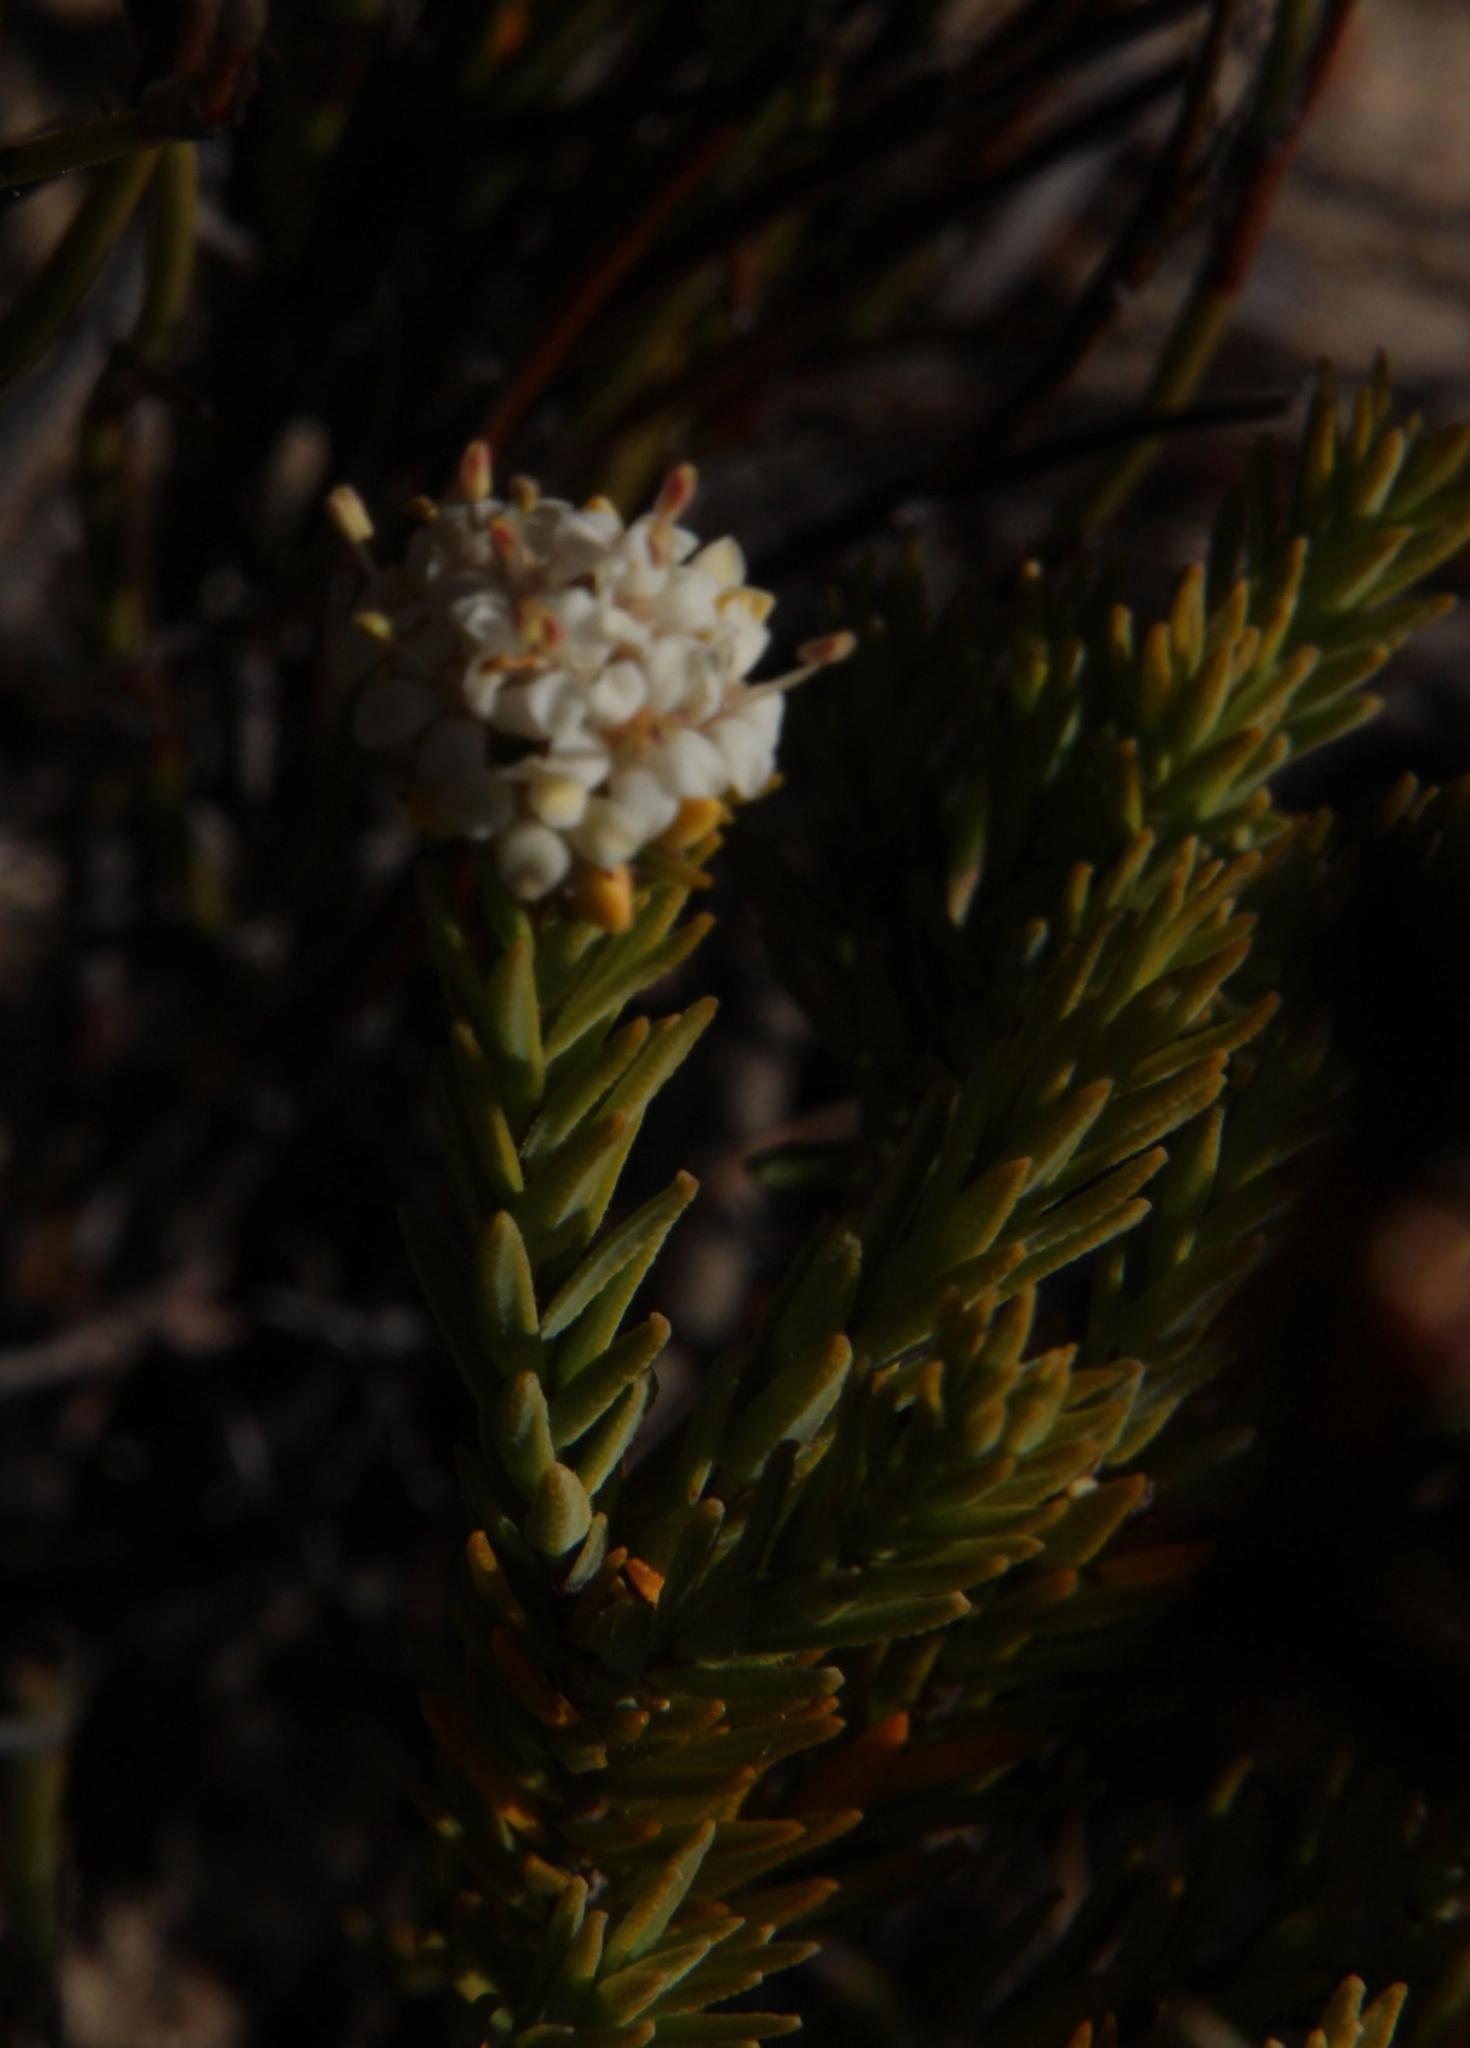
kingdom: Plantae
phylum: Tracheophyta
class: Magnoliopsida
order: Sapindales
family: Rutaceae
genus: Macrostylis
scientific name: Macrostylis villosa
